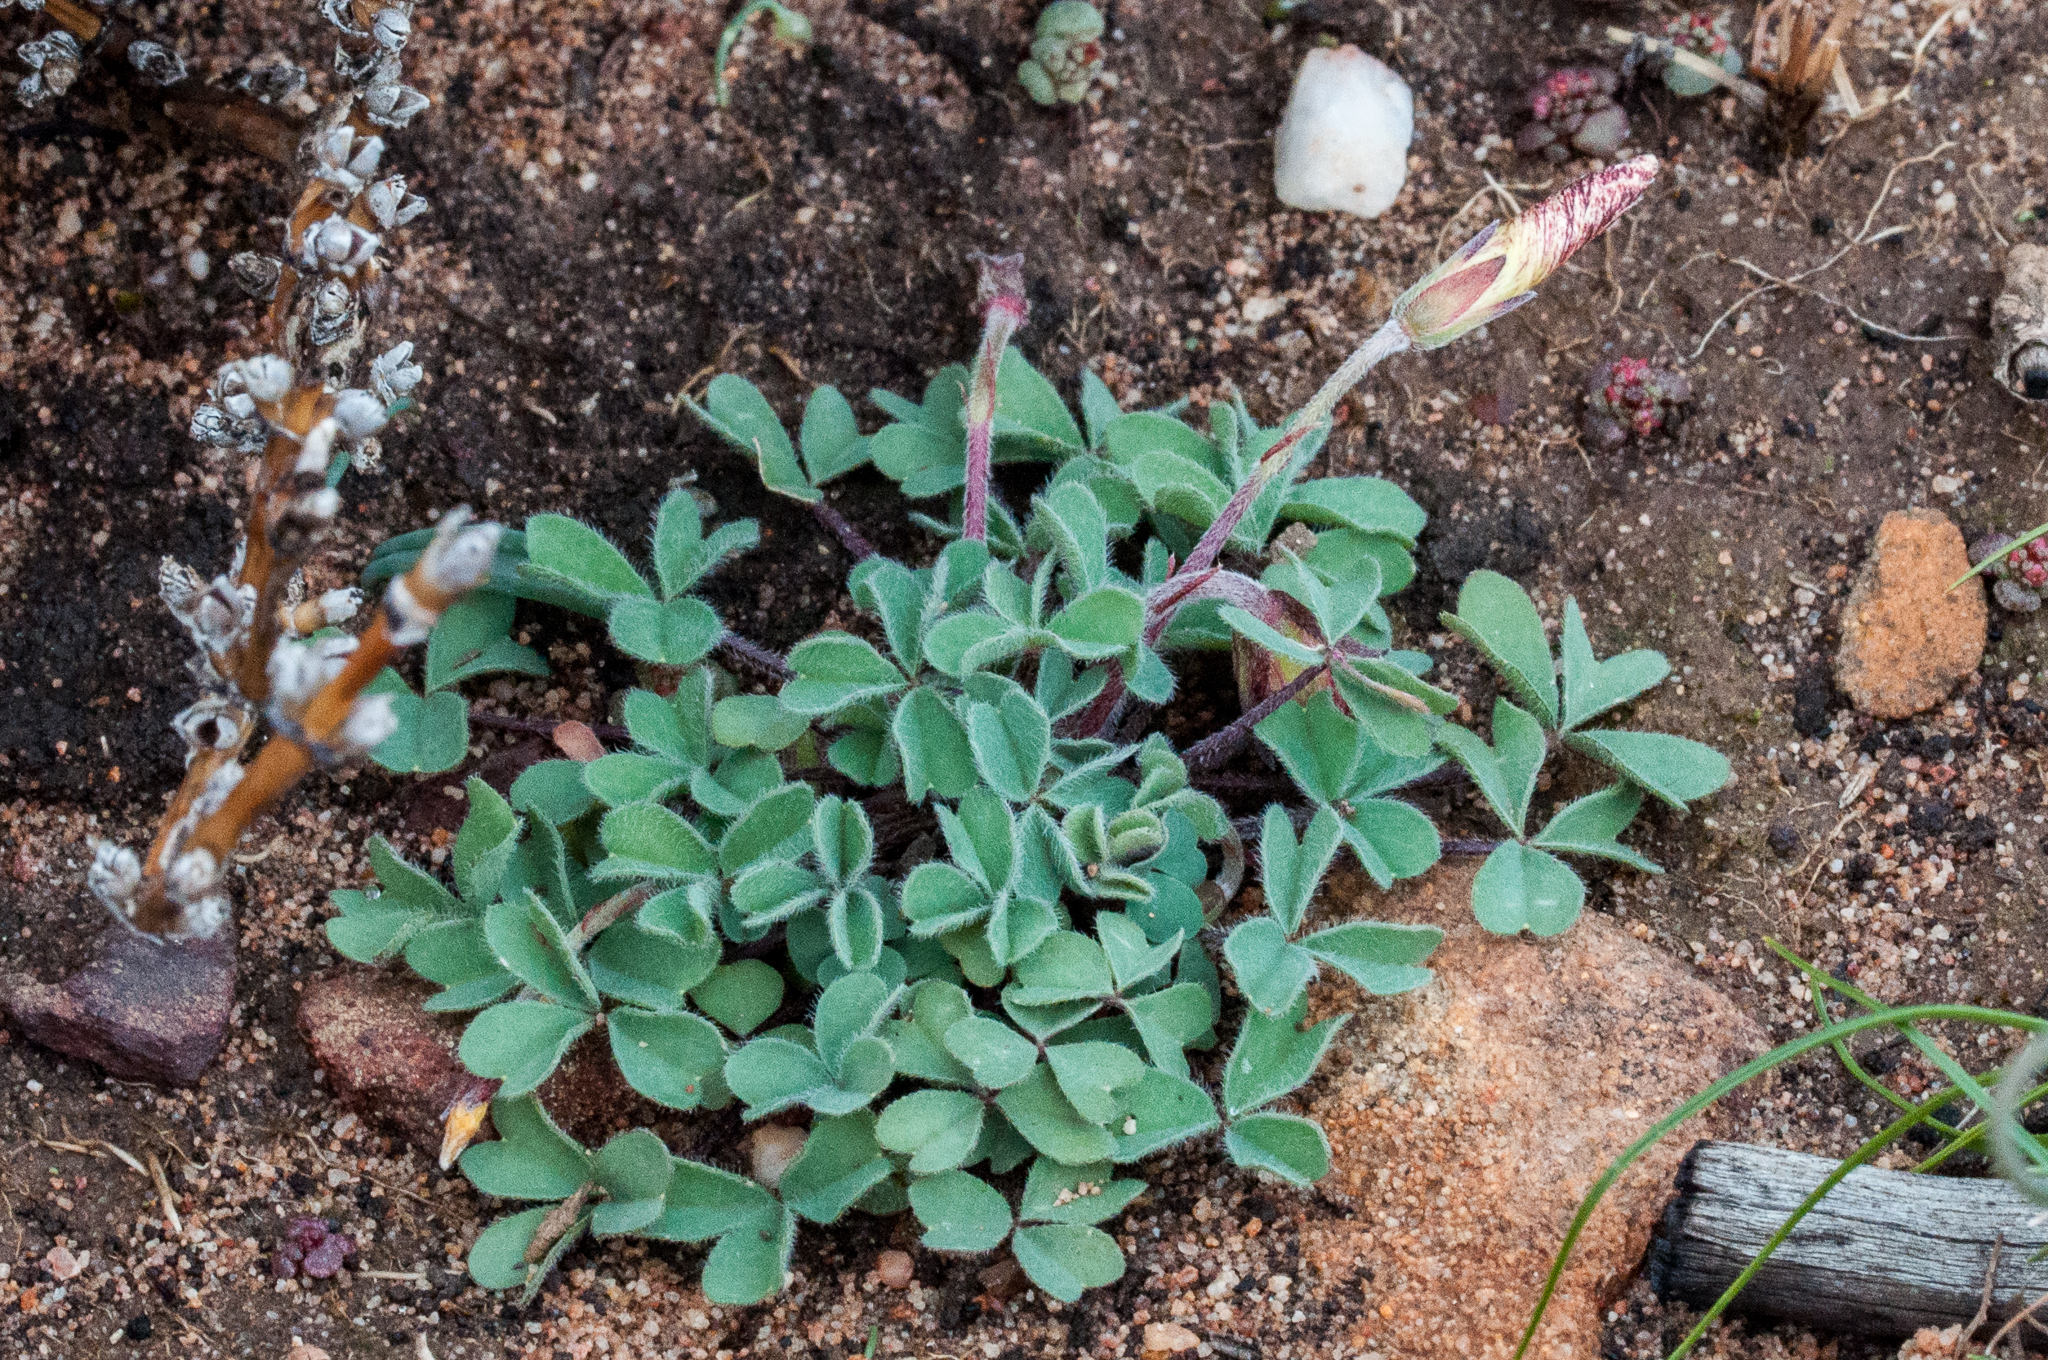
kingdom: Plantae
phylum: Tracheophyta
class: Magnoliopsida
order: Oxalidales
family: Oxalidaceae
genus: Oxalis
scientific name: Oxalis obtusa
